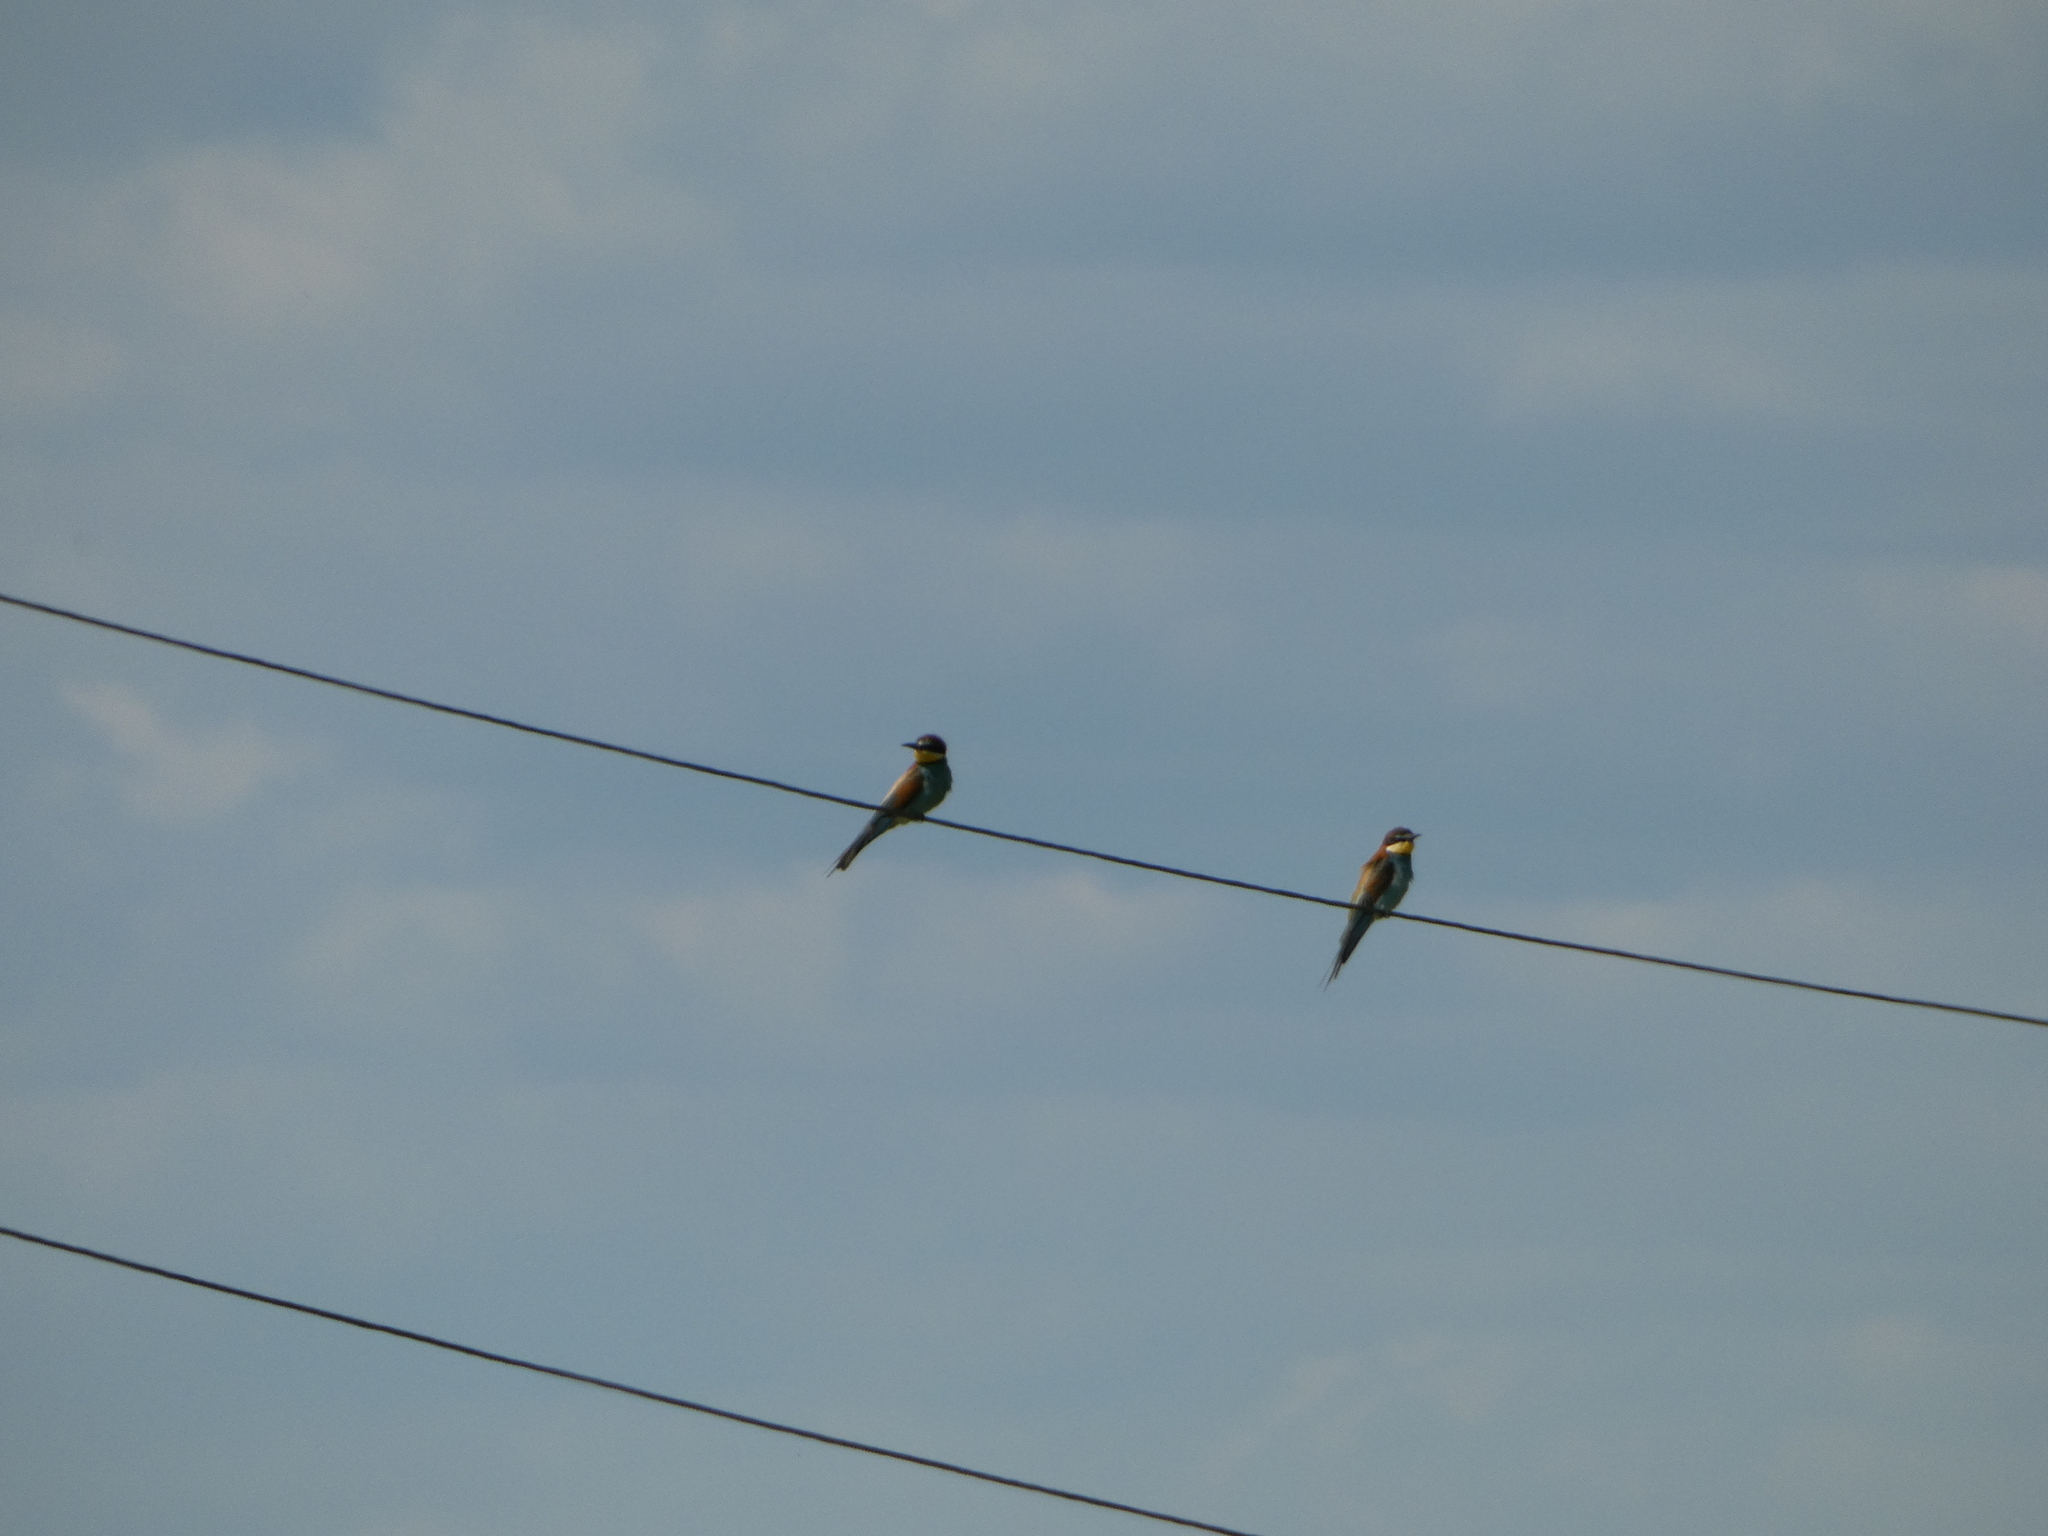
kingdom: Animalia
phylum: Chordata
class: Aves
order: Coraciiformes
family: Meropidae
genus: Merops
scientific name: Merops apiaster
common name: European bee-eater
